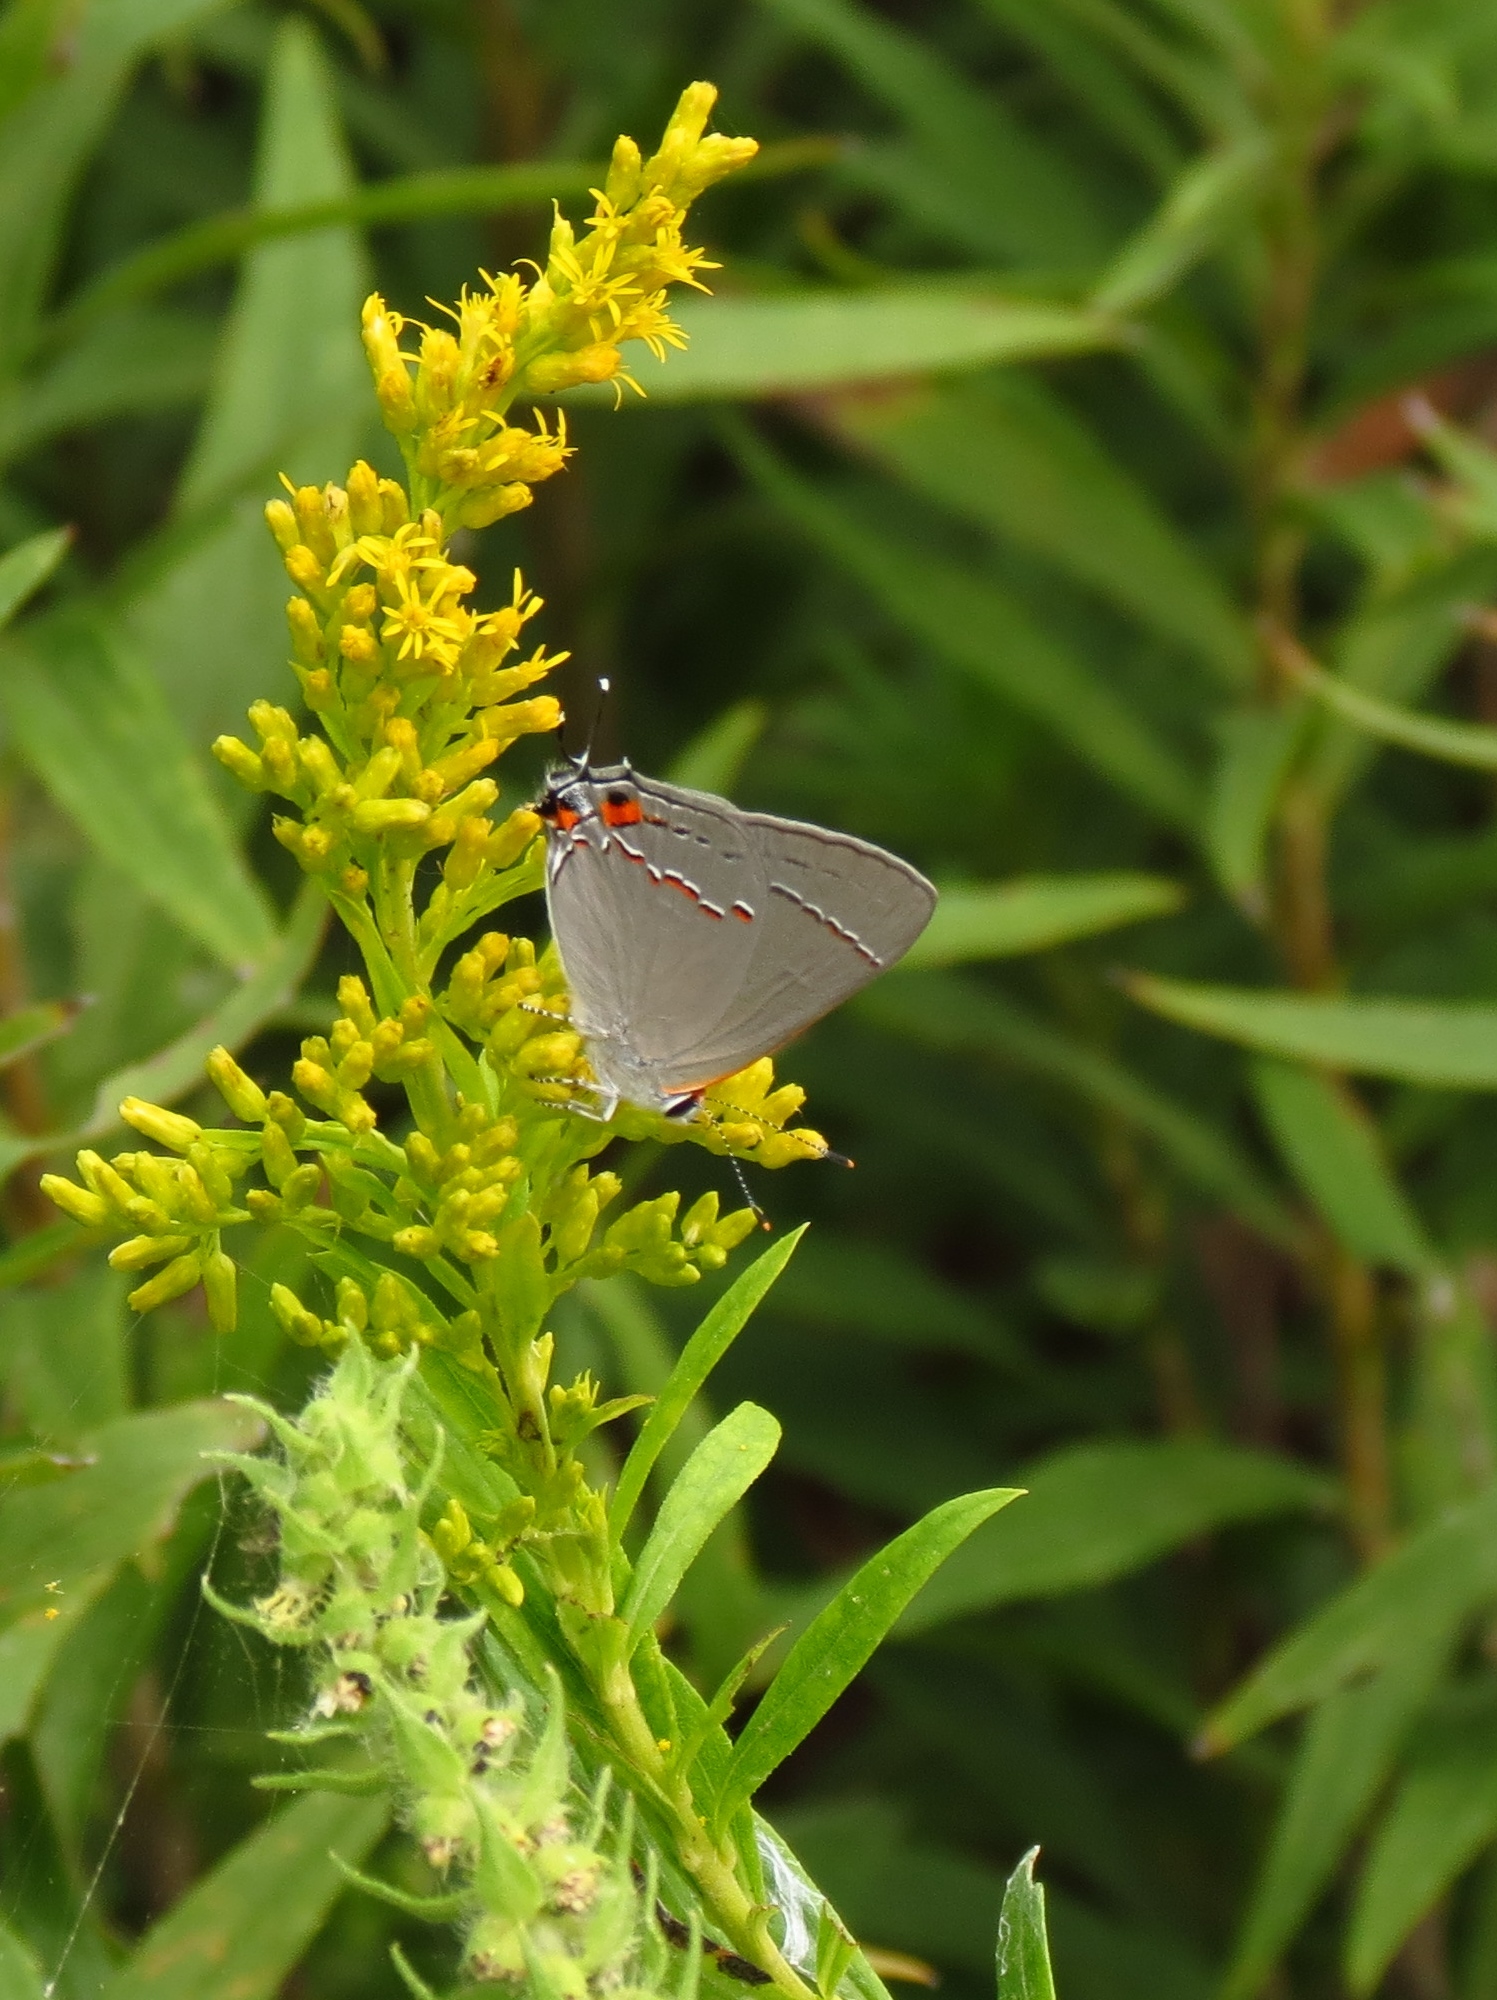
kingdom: Animalia
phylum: Arthropoda
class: Insecta
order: Lepidoptera
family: Lycaenidae
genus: Strymon
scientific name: Strymon melinus
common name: Gray hairstreak
